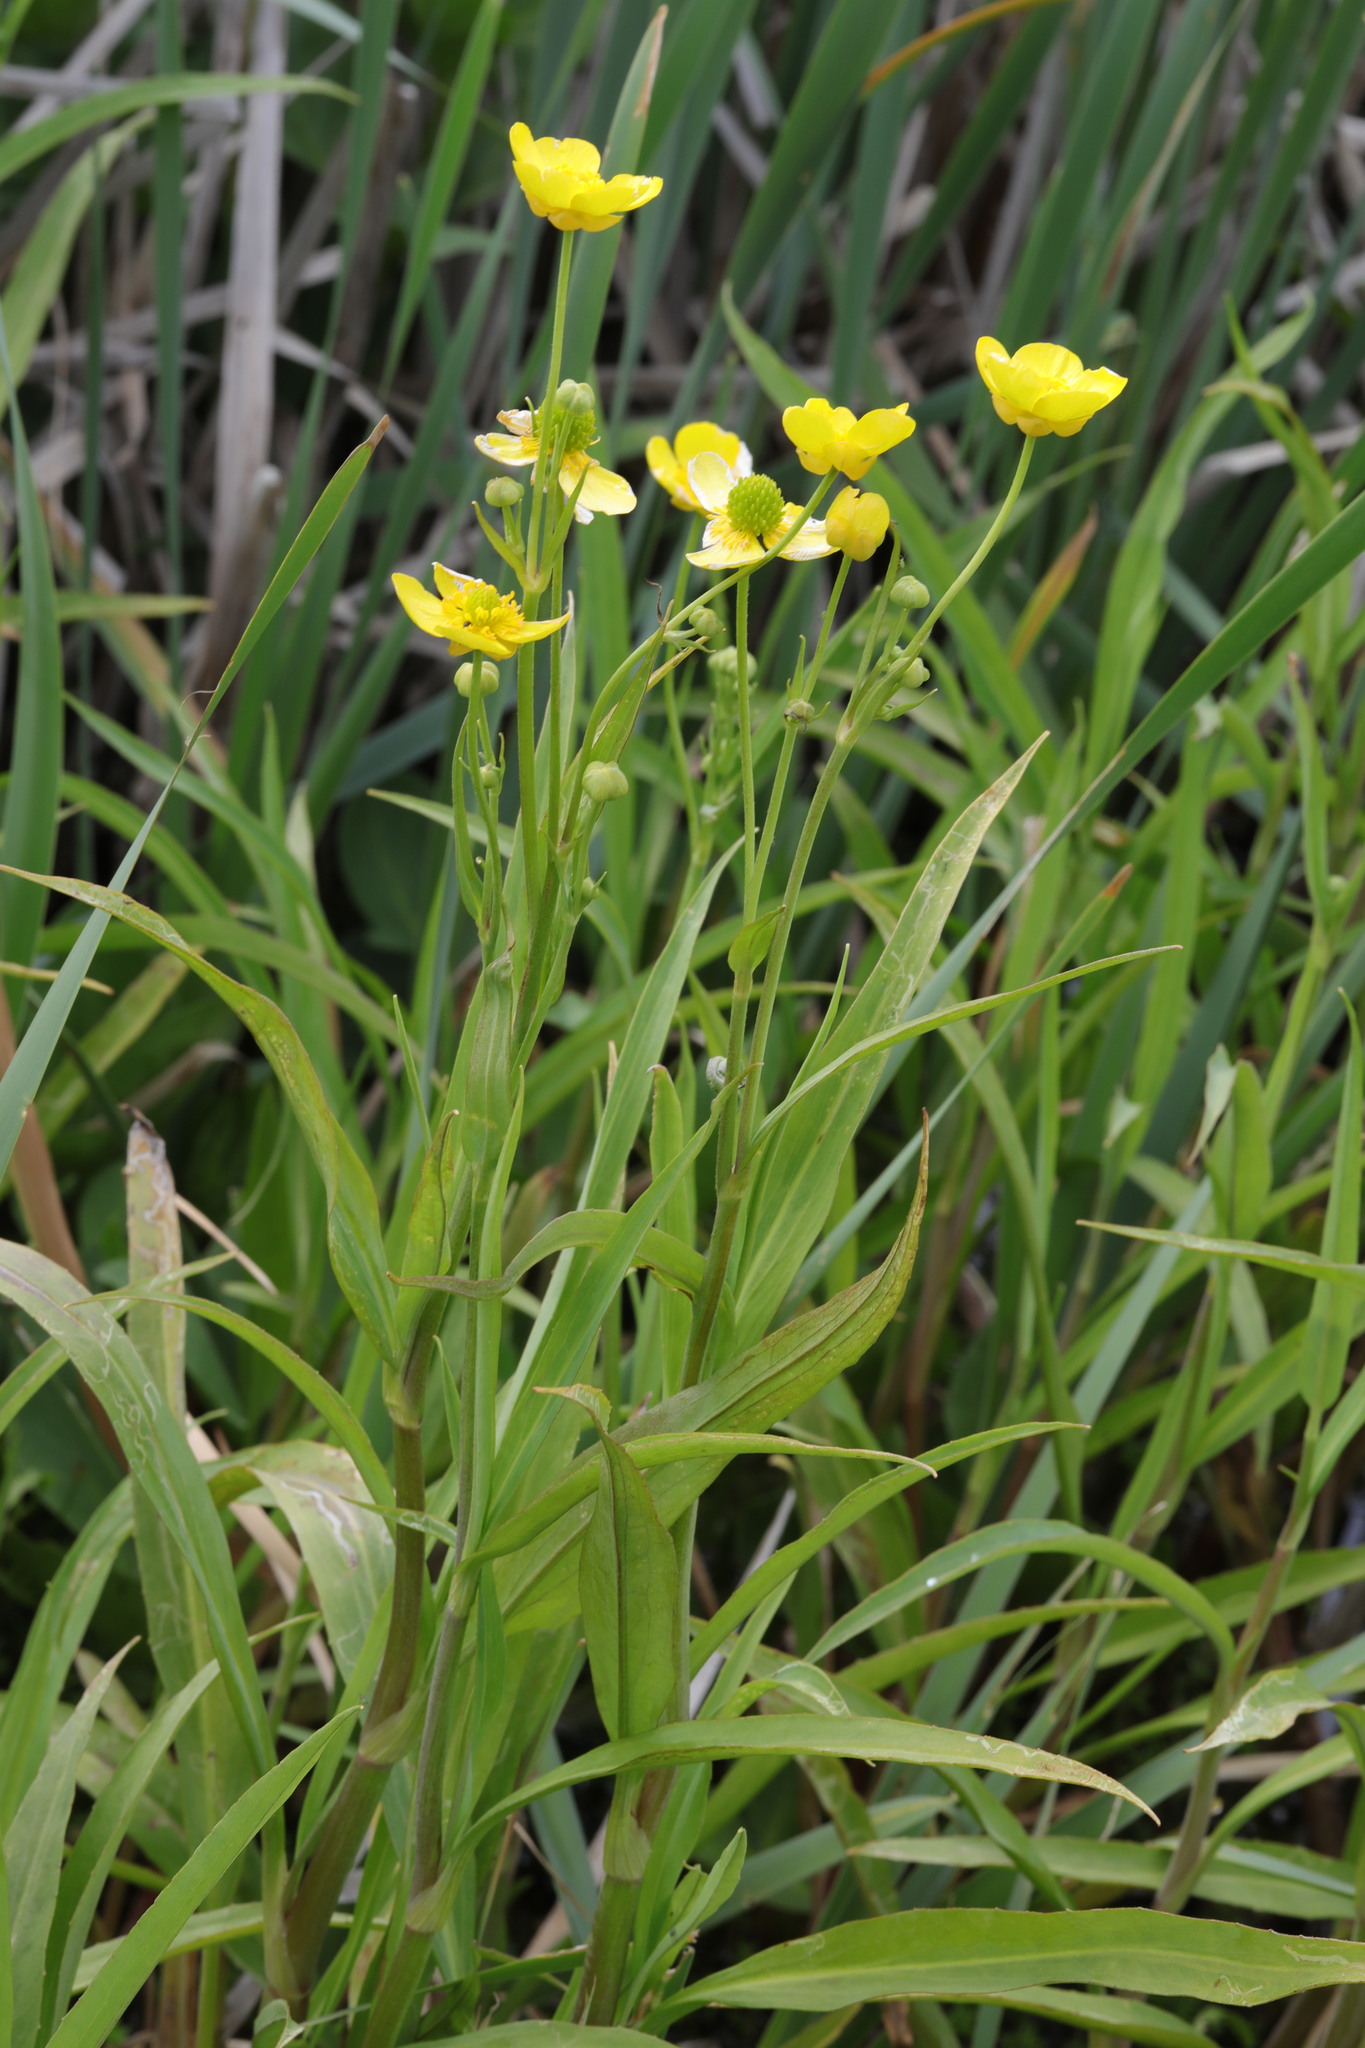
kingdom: Plantae
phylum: Tracheophyta
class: Magnoliopsida
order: Ranunculales
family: Ranunculaceae
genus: Ranunculus
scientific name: Ranunculus lingua
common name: Greater spearwort
